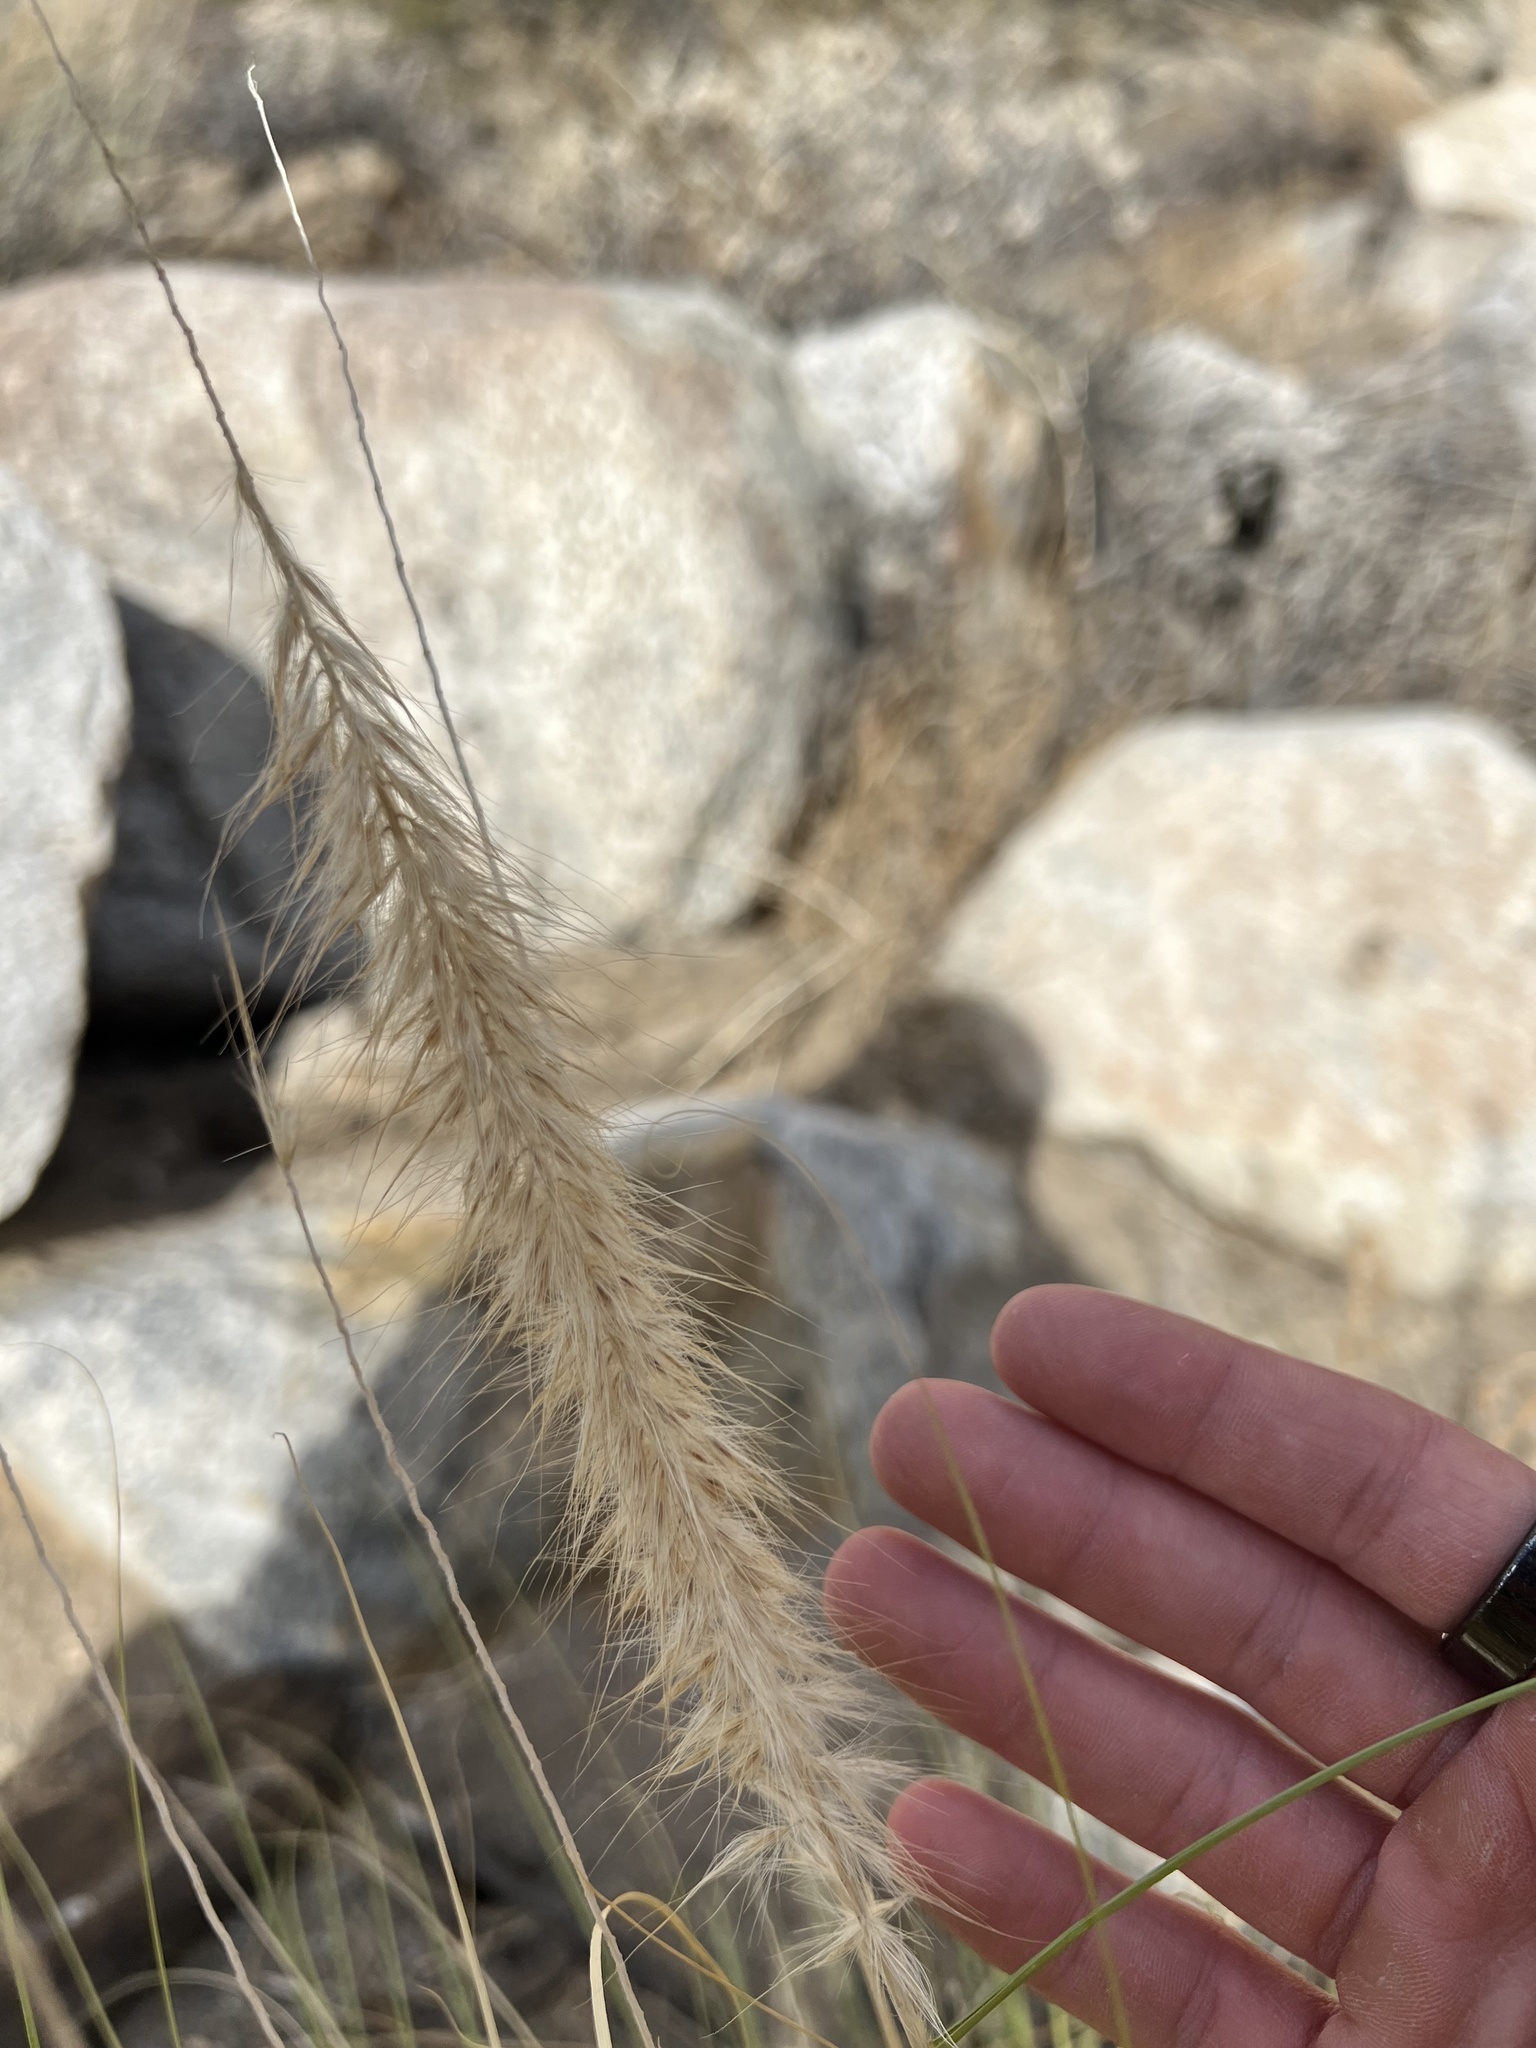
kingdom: Plantae
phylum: Tracheophyta
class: Liliopsida
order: Poales
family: Poaceae
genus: Cenchrus
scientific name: Cenchrus setaceus
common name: Crimson fountaingrass
